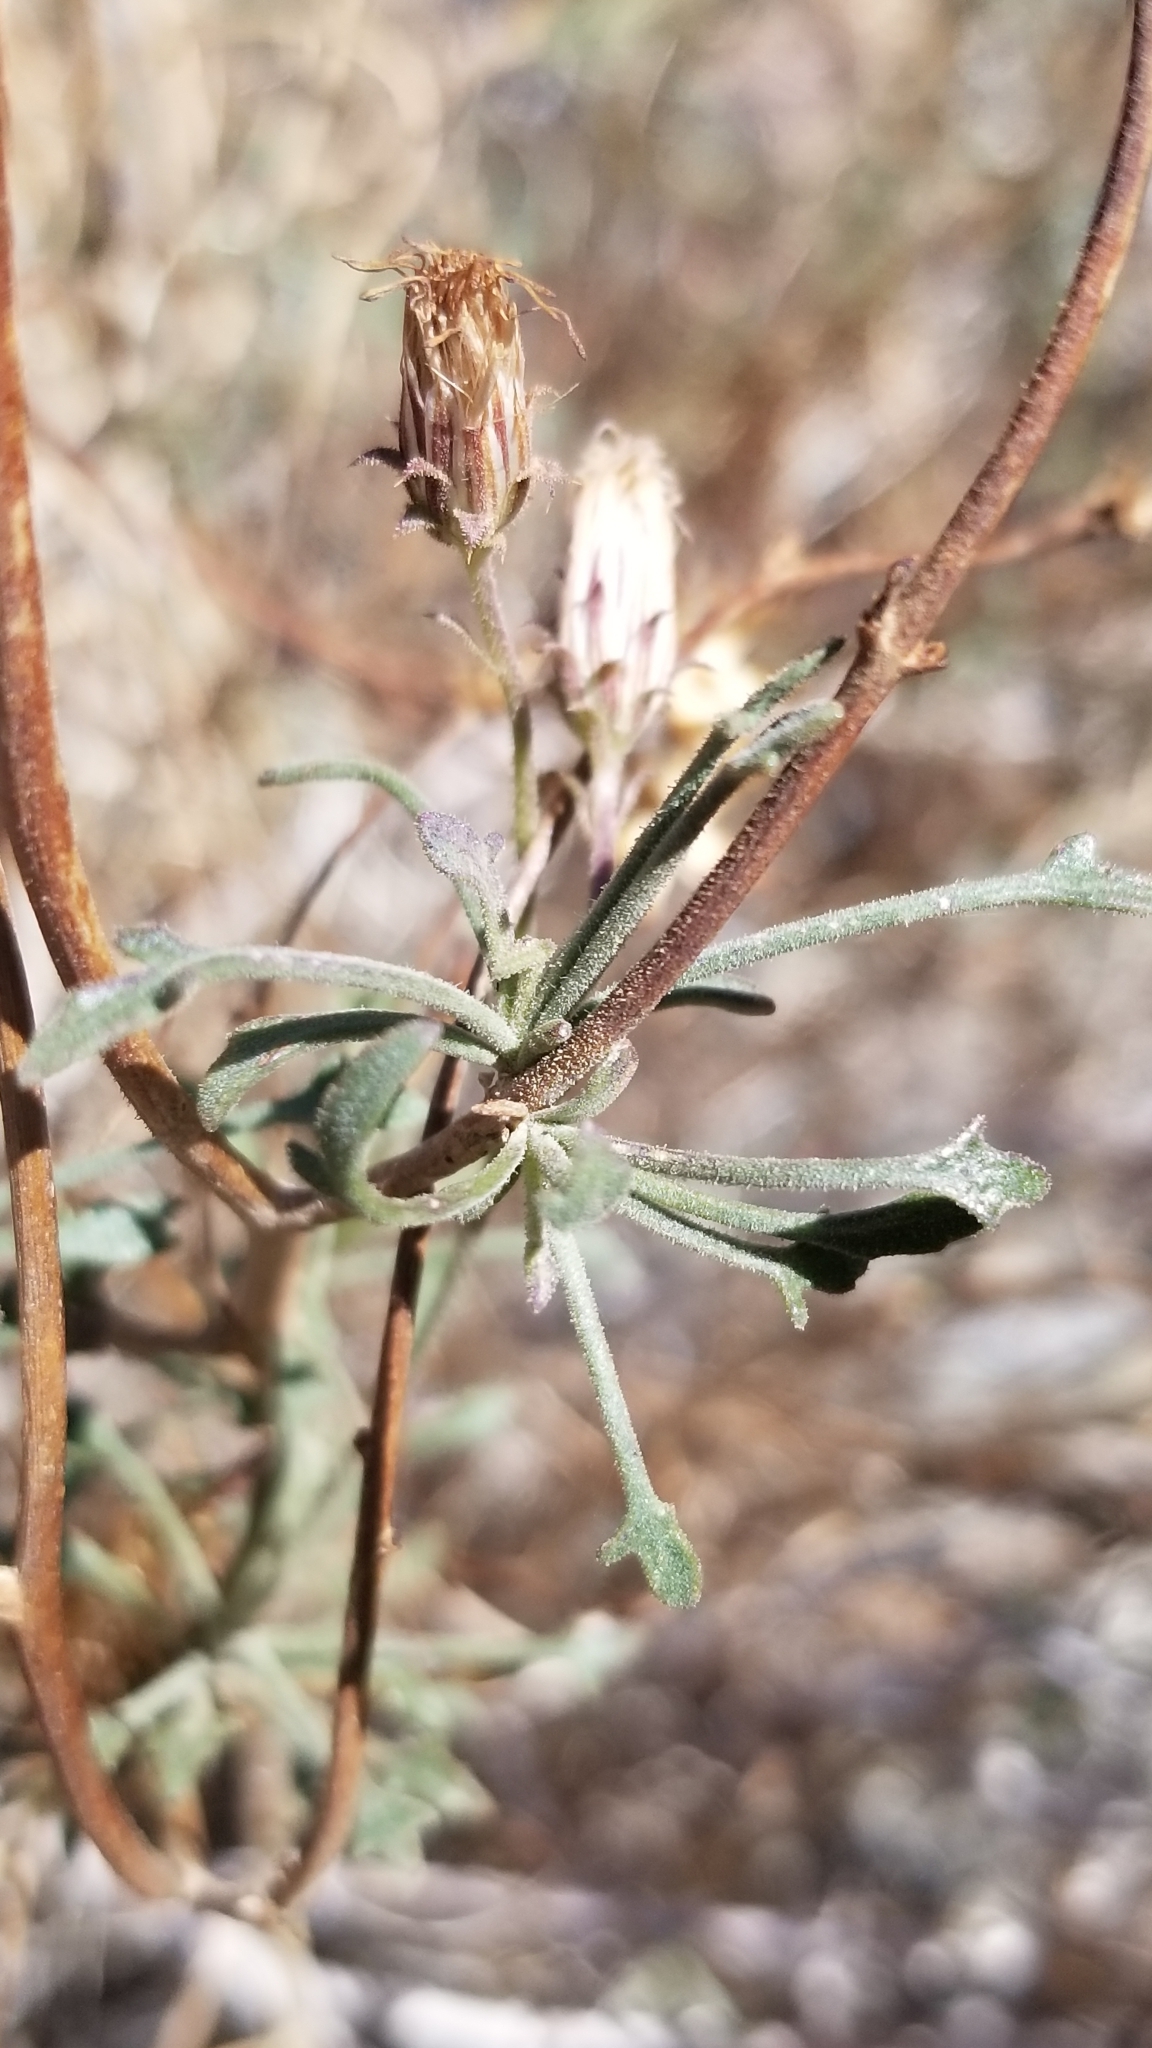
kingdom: Plantae
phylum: Tracheophyta
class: Magnoliopsida
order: Asterales
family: Asteraceae
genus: Pleurocoronis
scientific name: Pleurocoronis pluriseta
